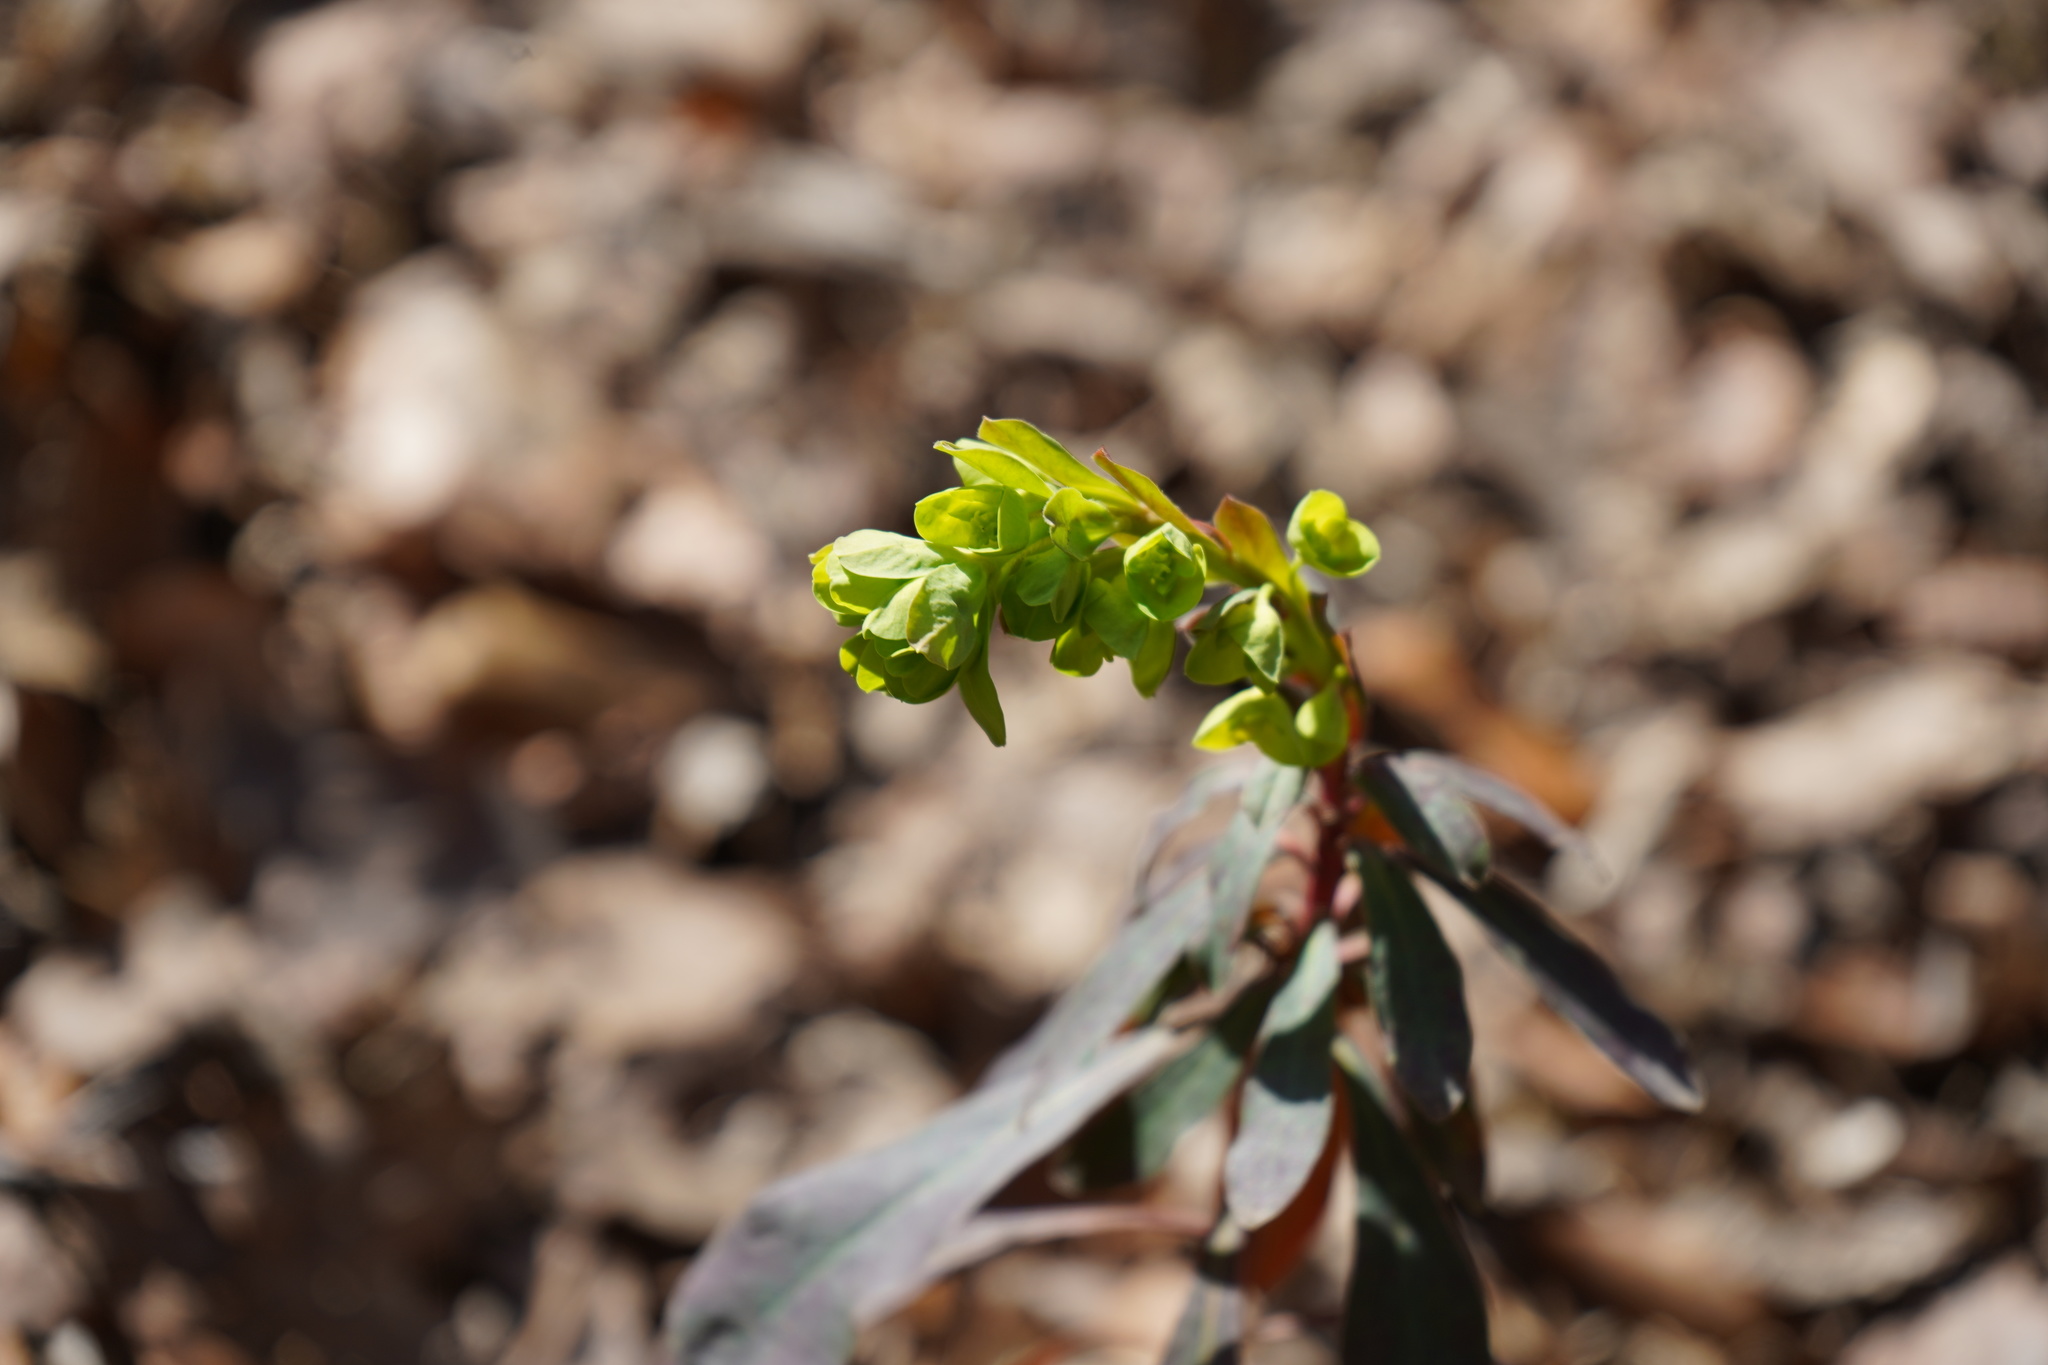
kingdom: Plantae
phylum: Tracheophyta
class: Magnoliopsida
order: Malpighiales
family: Euphorbiaceae
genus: Euphorbia
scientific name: Euphorbia amygdaloides
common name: Wood spurge
